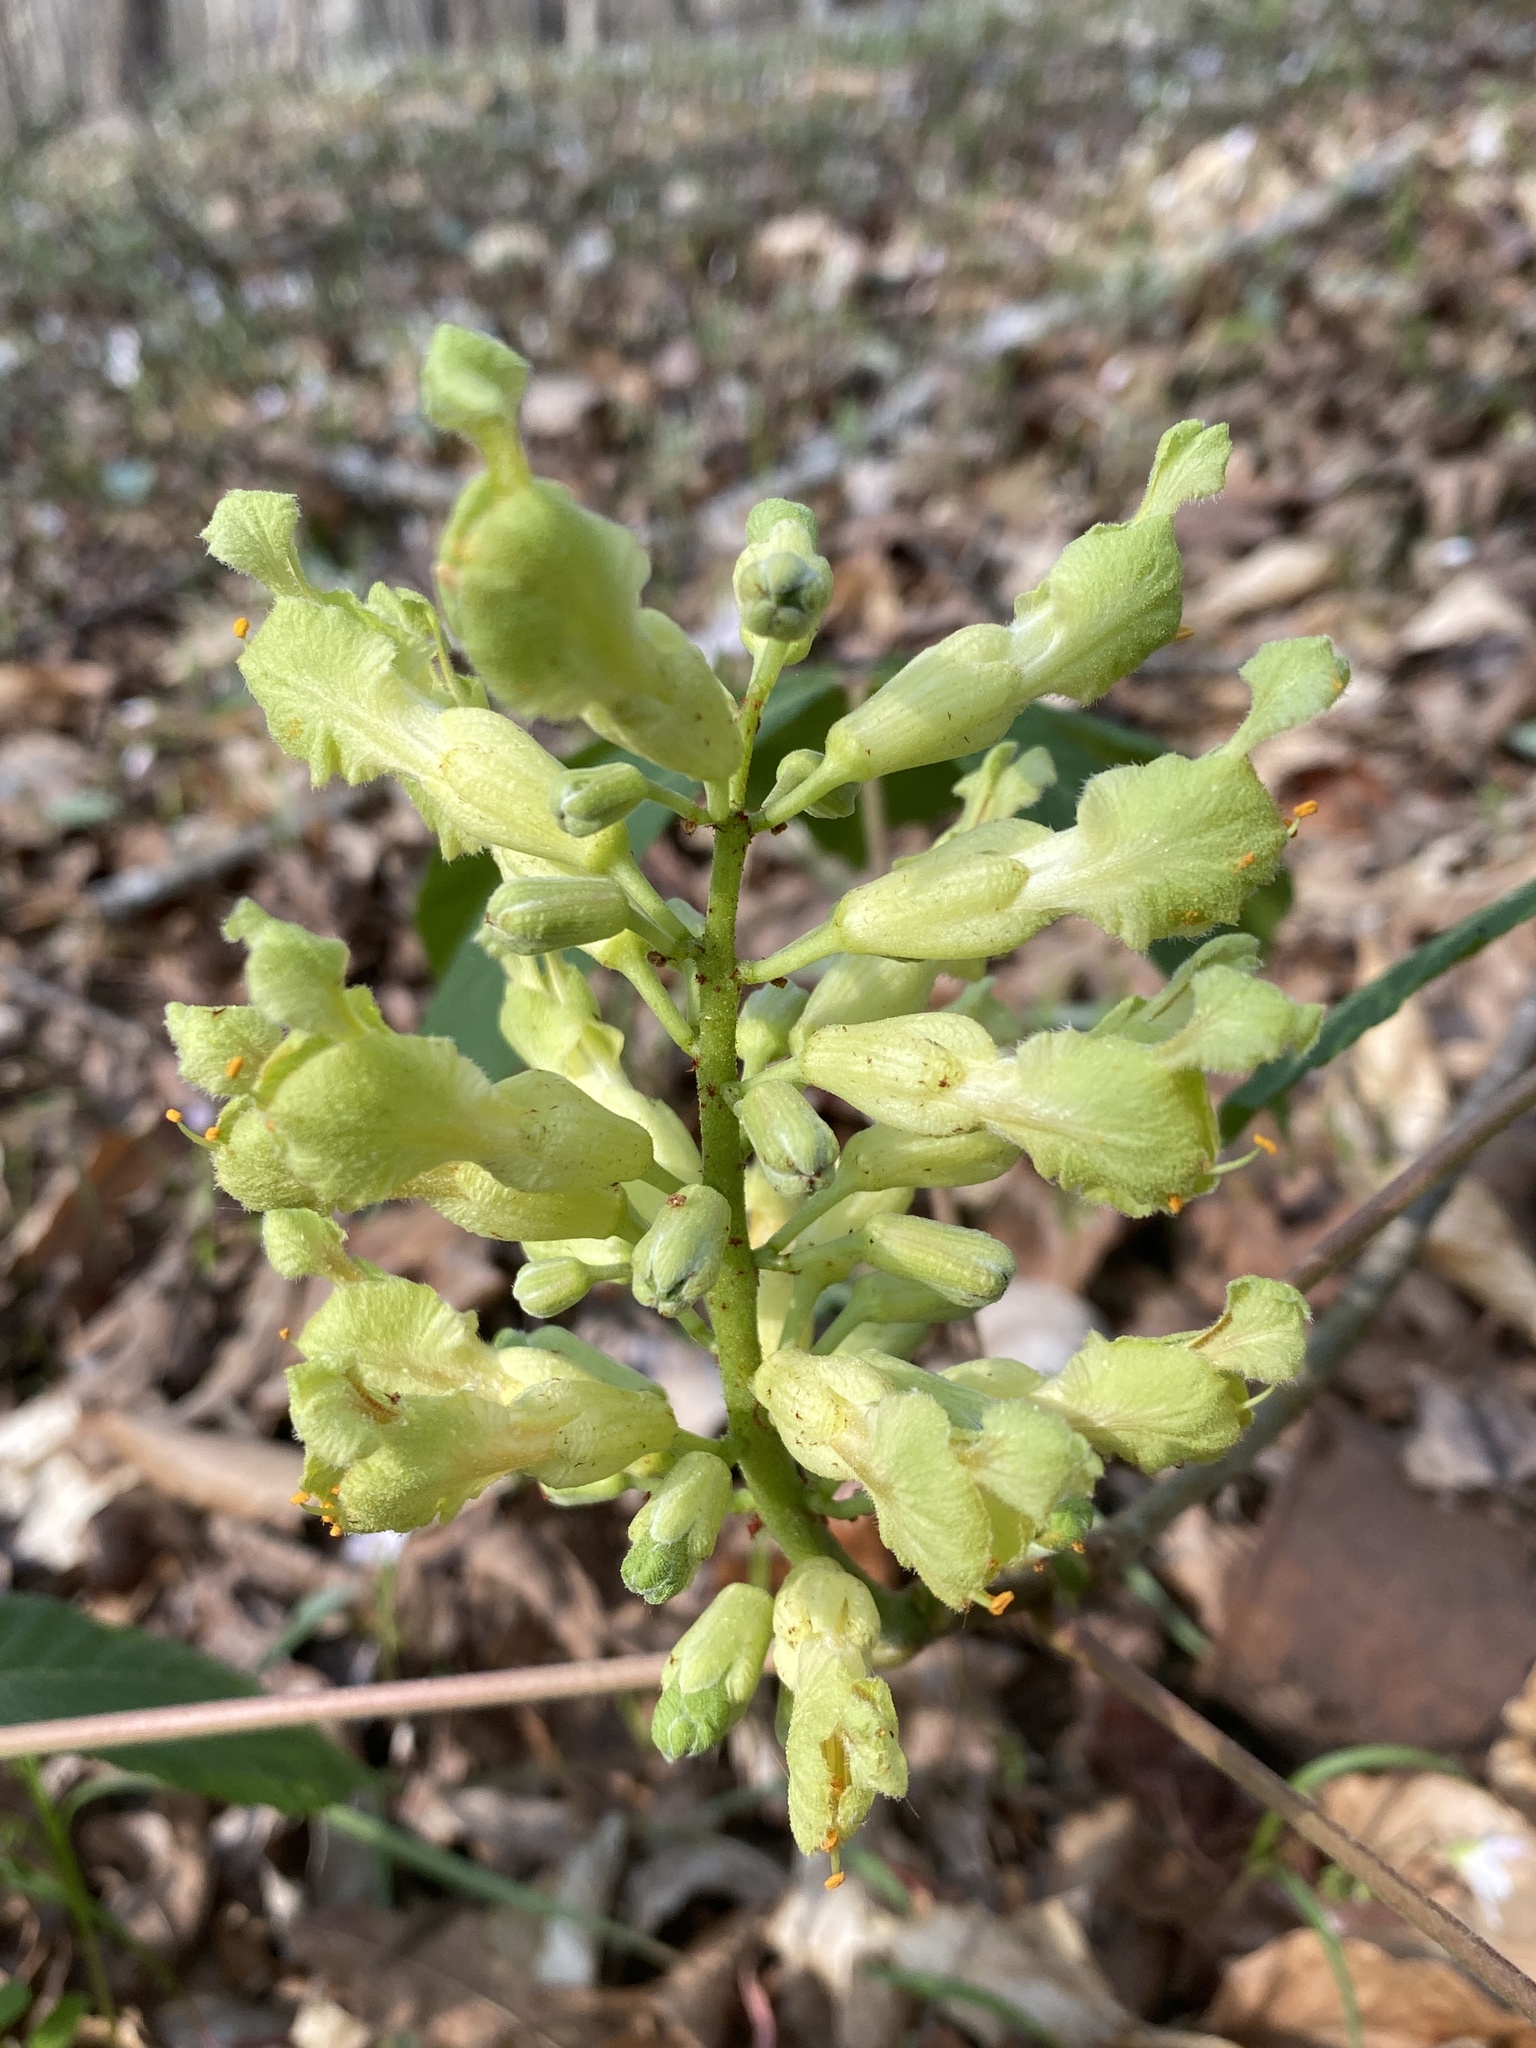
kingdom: Plantae
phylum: Tracheophyta
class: Magnoliopsida
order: Sapindales
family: Sapindaceae
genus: Aesculus
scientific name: Aesculus sylvatica
